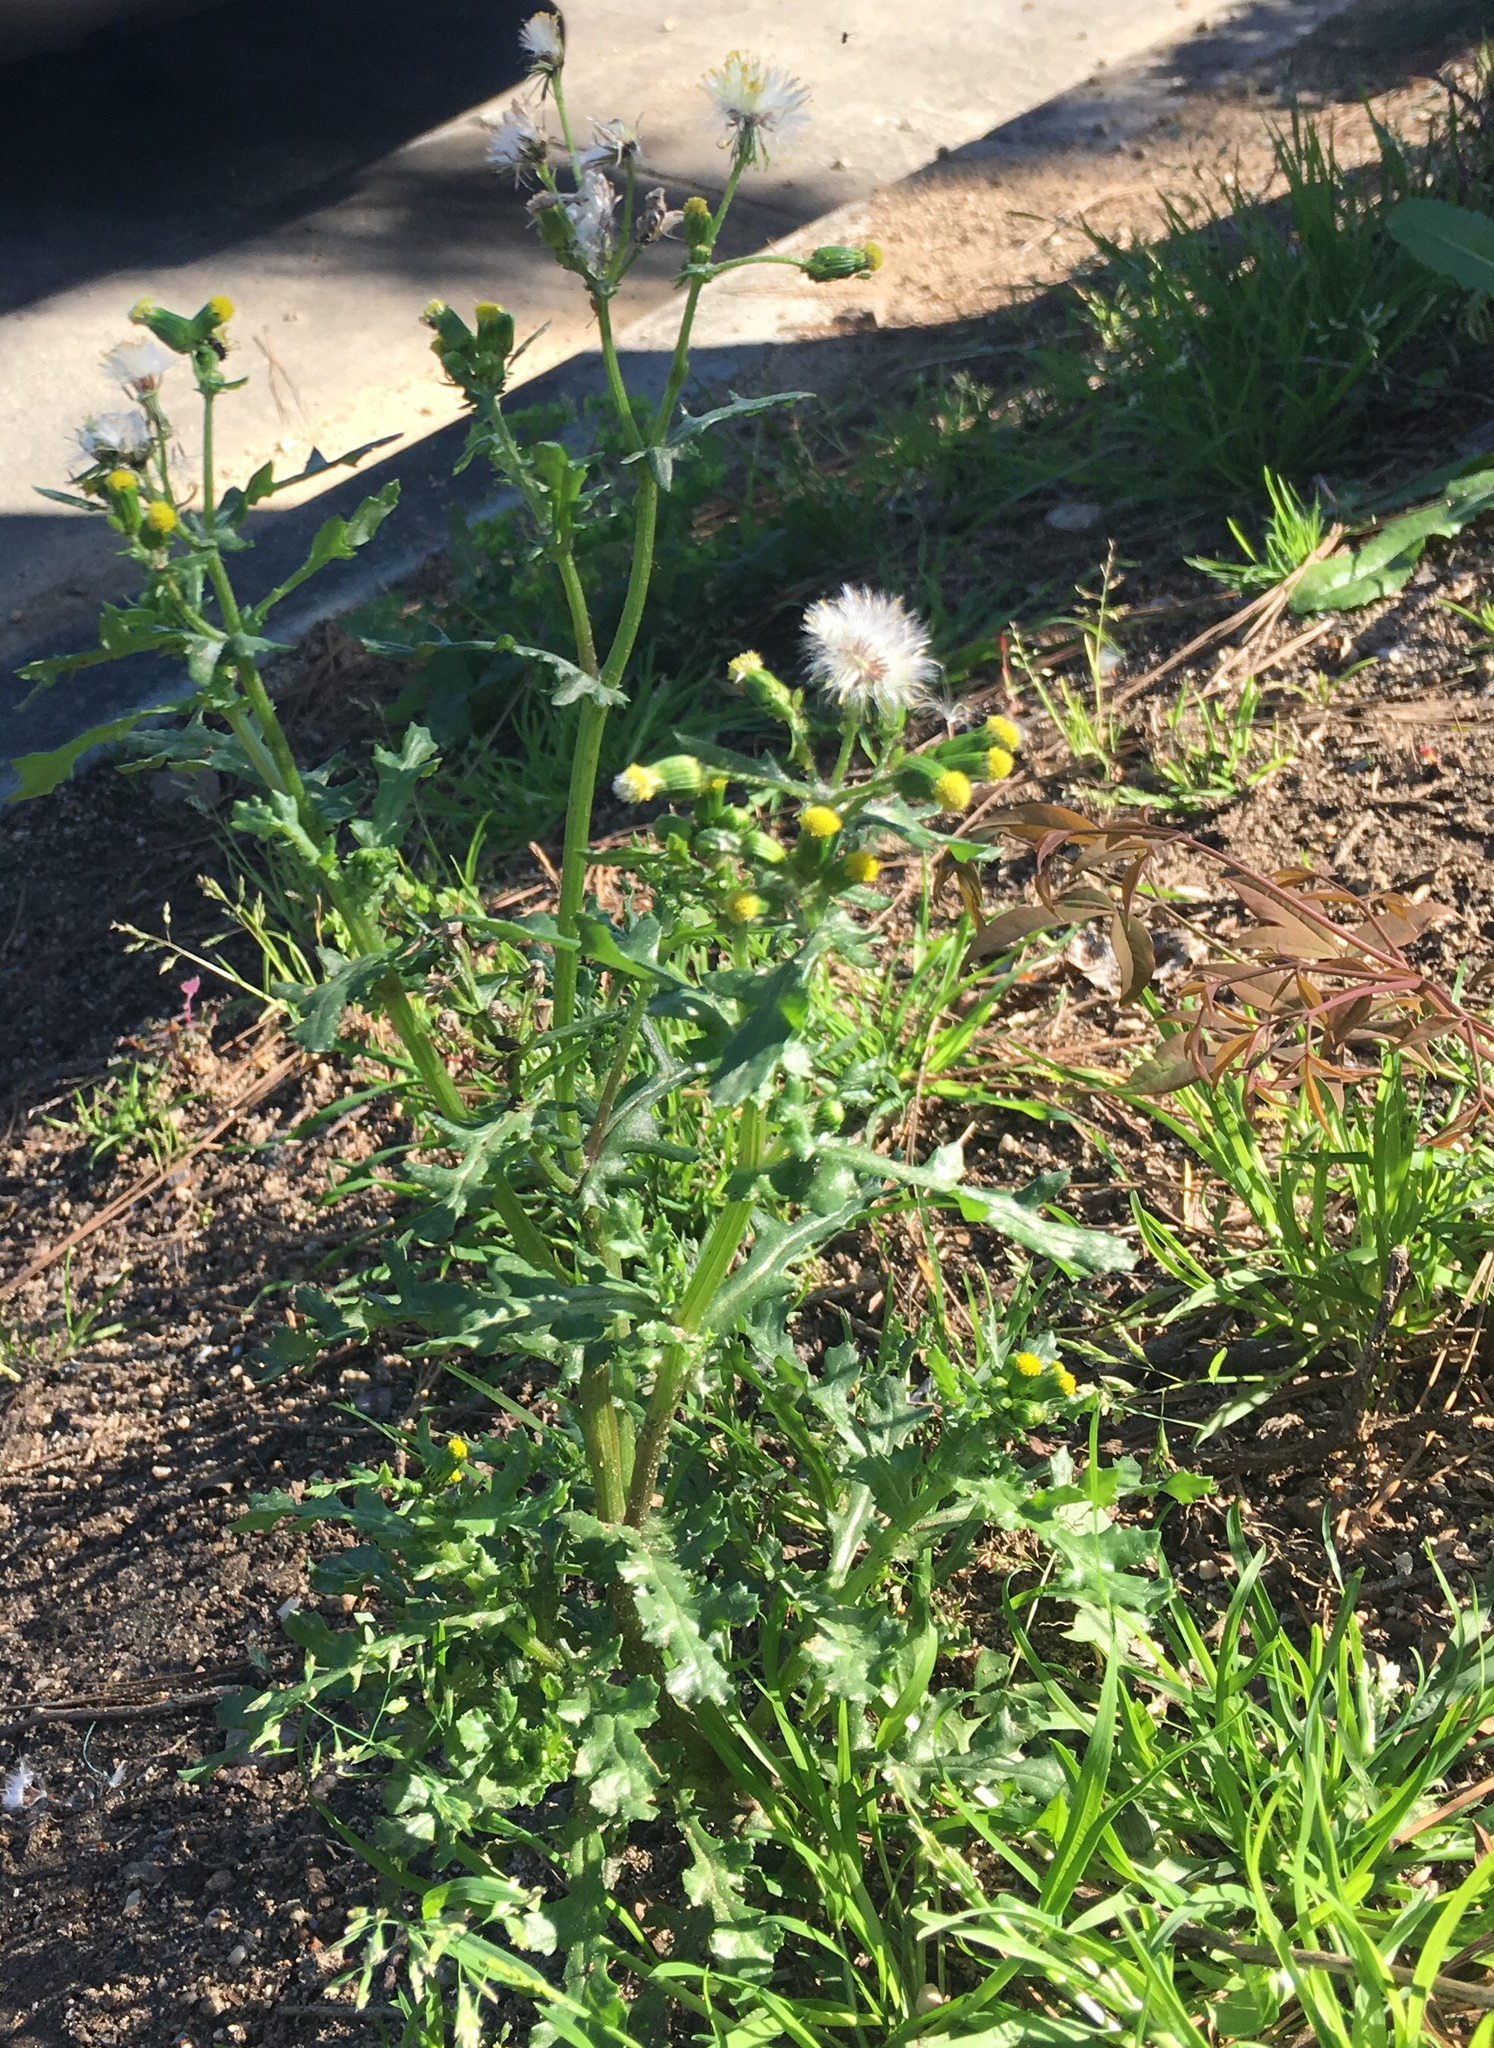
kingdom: Plantae
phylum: Tracheophyta
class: Magnoliopsida
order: Asterales
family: Asteraceae
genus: Senecio
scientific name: Senecio vulgaris
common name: Old-man-in-the-spring
